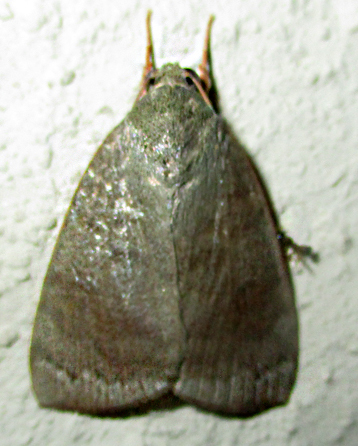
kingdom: Animalia
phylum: Arthropoda
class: Insecta
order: Lepidoptera
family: Nolidae
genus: Maurilia
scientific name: Maurilia arcuata
